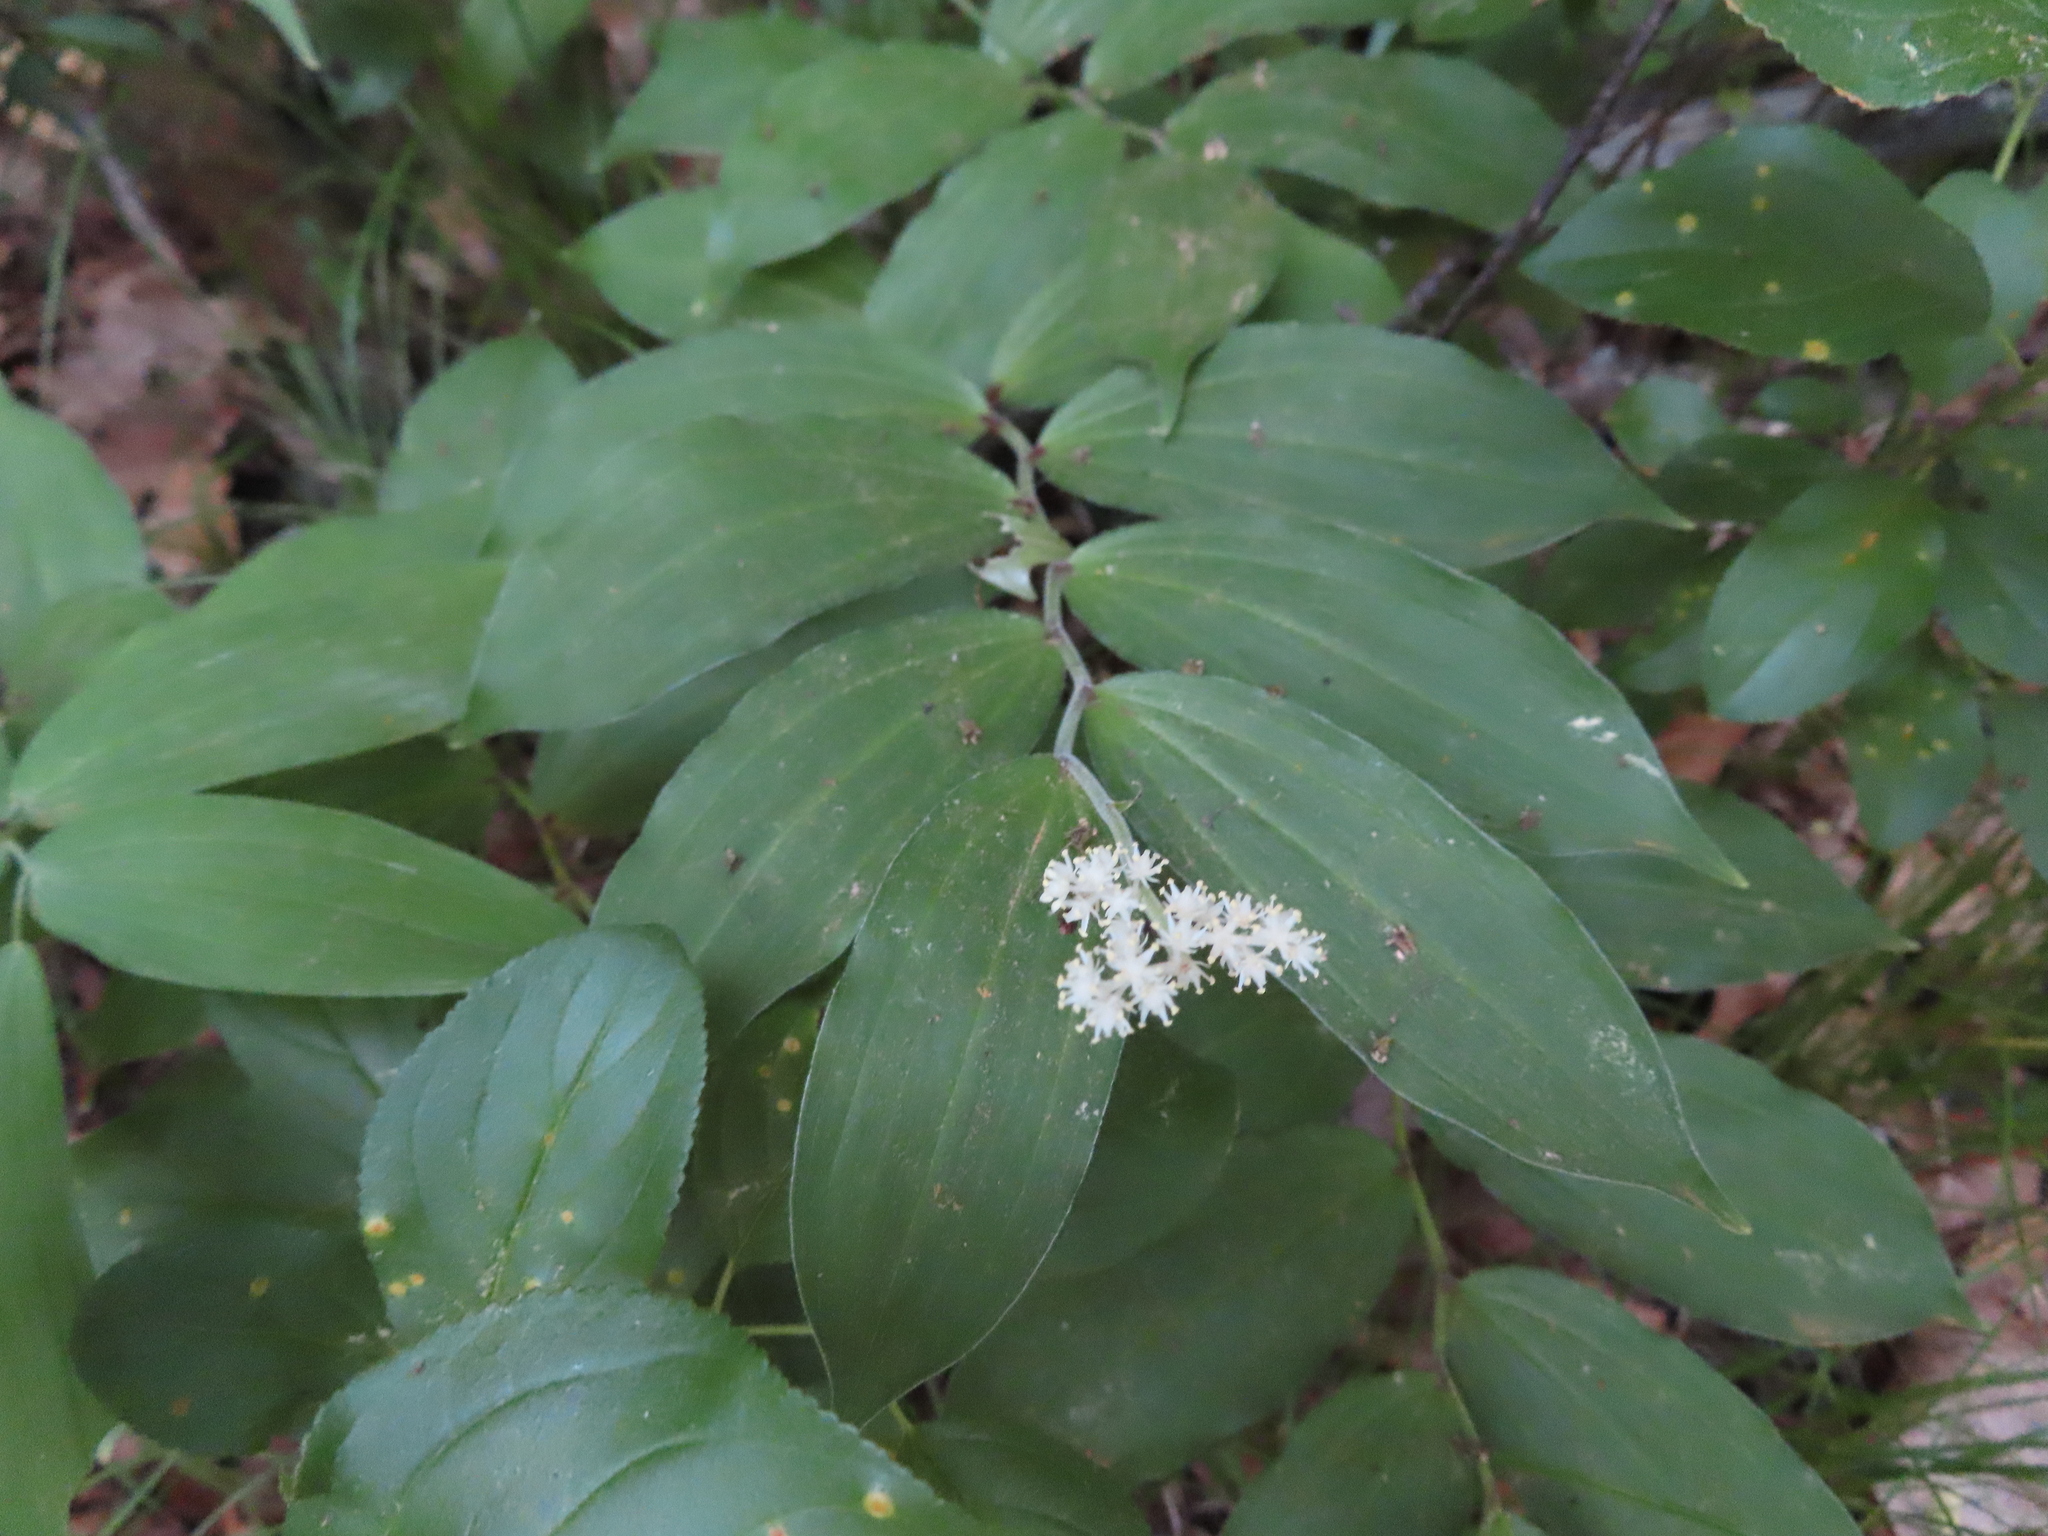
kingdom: Plantae
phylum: Tracheophyta
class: Liliopsida
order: Asparagales
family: Asparagaceae
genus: Maianthemum
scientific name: Maianthemum racemosum
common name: False spikenard
